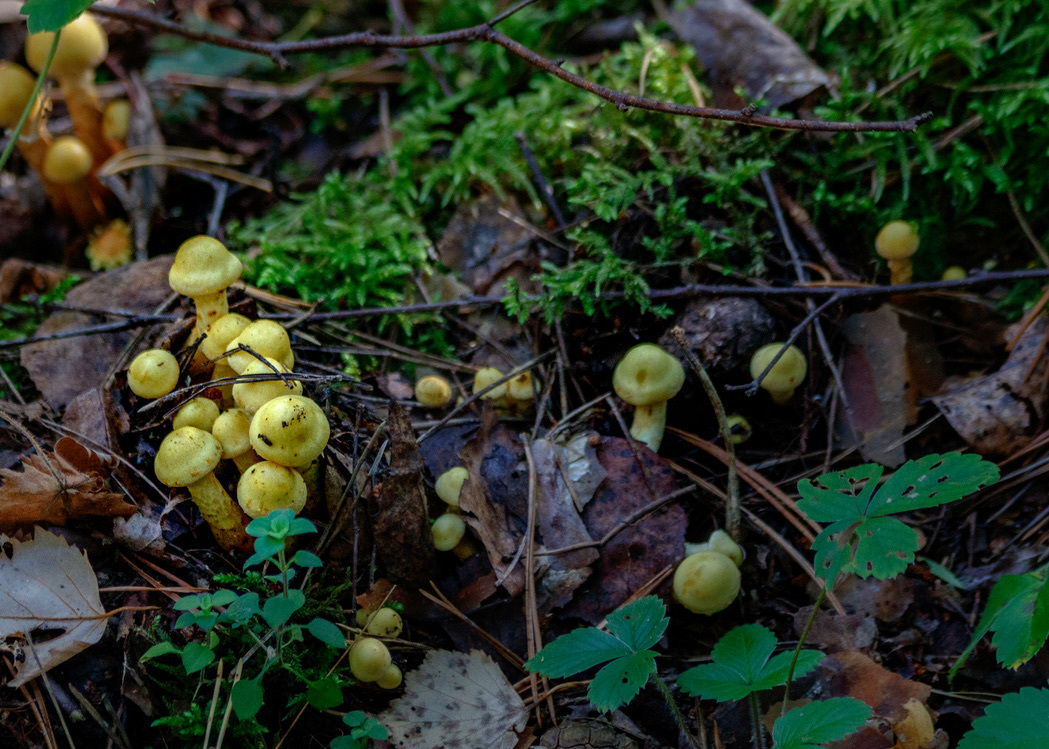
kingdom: Fungi
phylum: Basidiomycota
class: Agaricomycetes
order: Agaricales
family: Hymenogastraceae
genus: Flammula
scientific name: Flammula alnicola
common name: Alder scalycap
